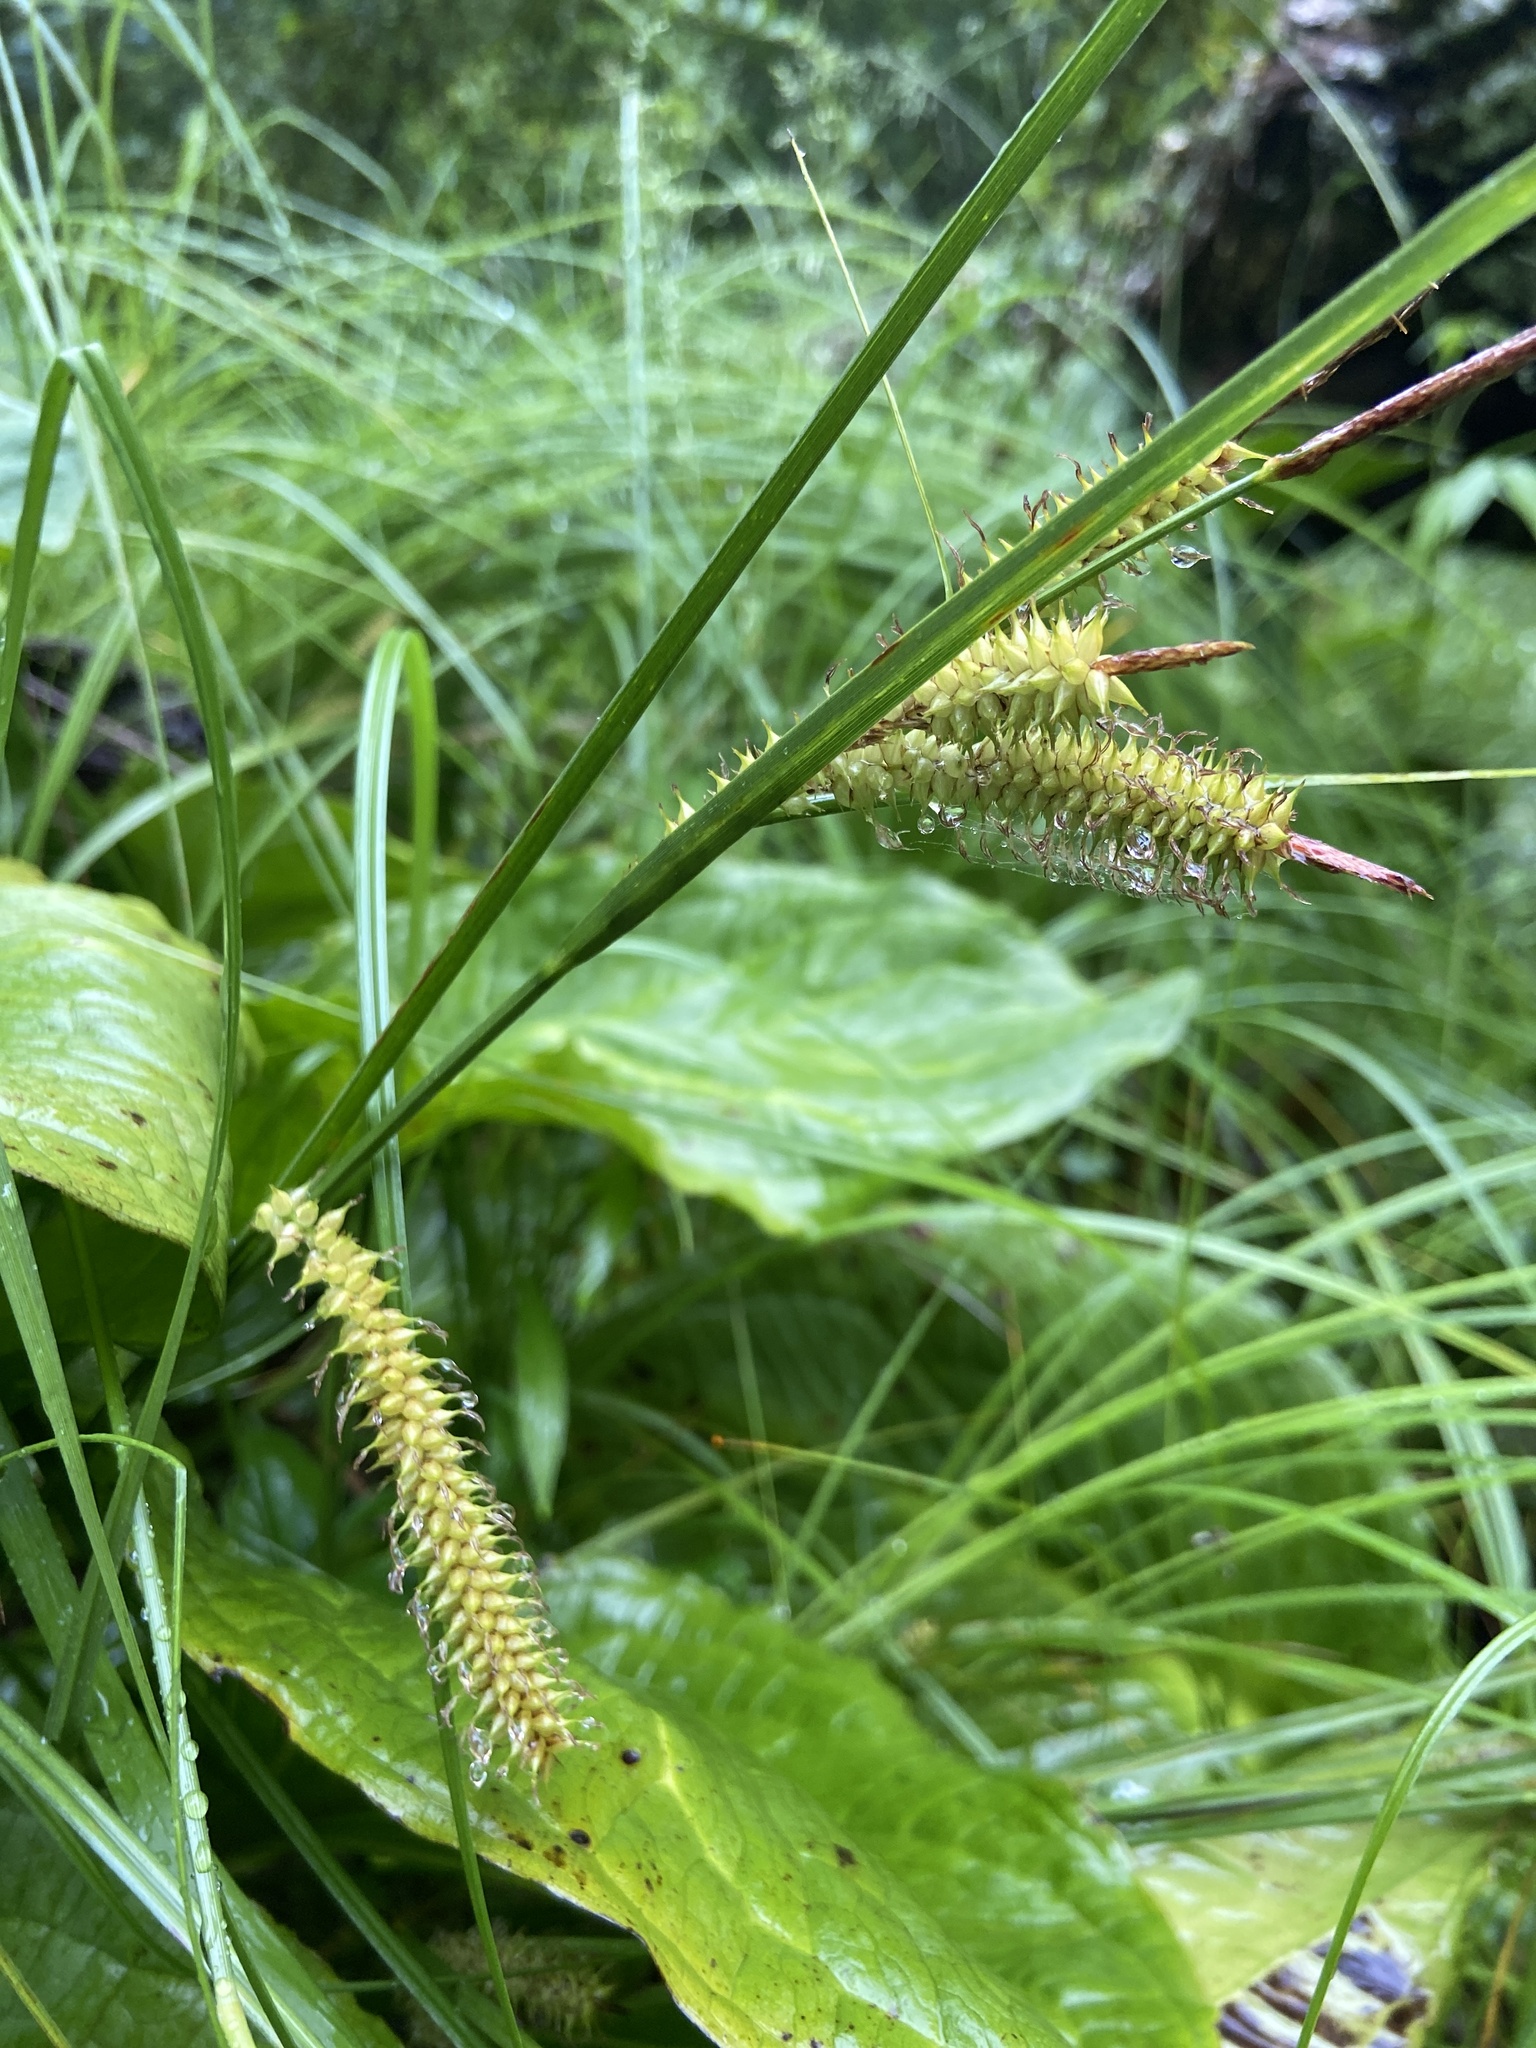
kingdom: Plantae
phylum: Tracheophyta
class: Liliopsida
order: Poales
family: Cyperaceae
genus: Carex
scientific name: Carex utriculata
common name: Beaked sedge
